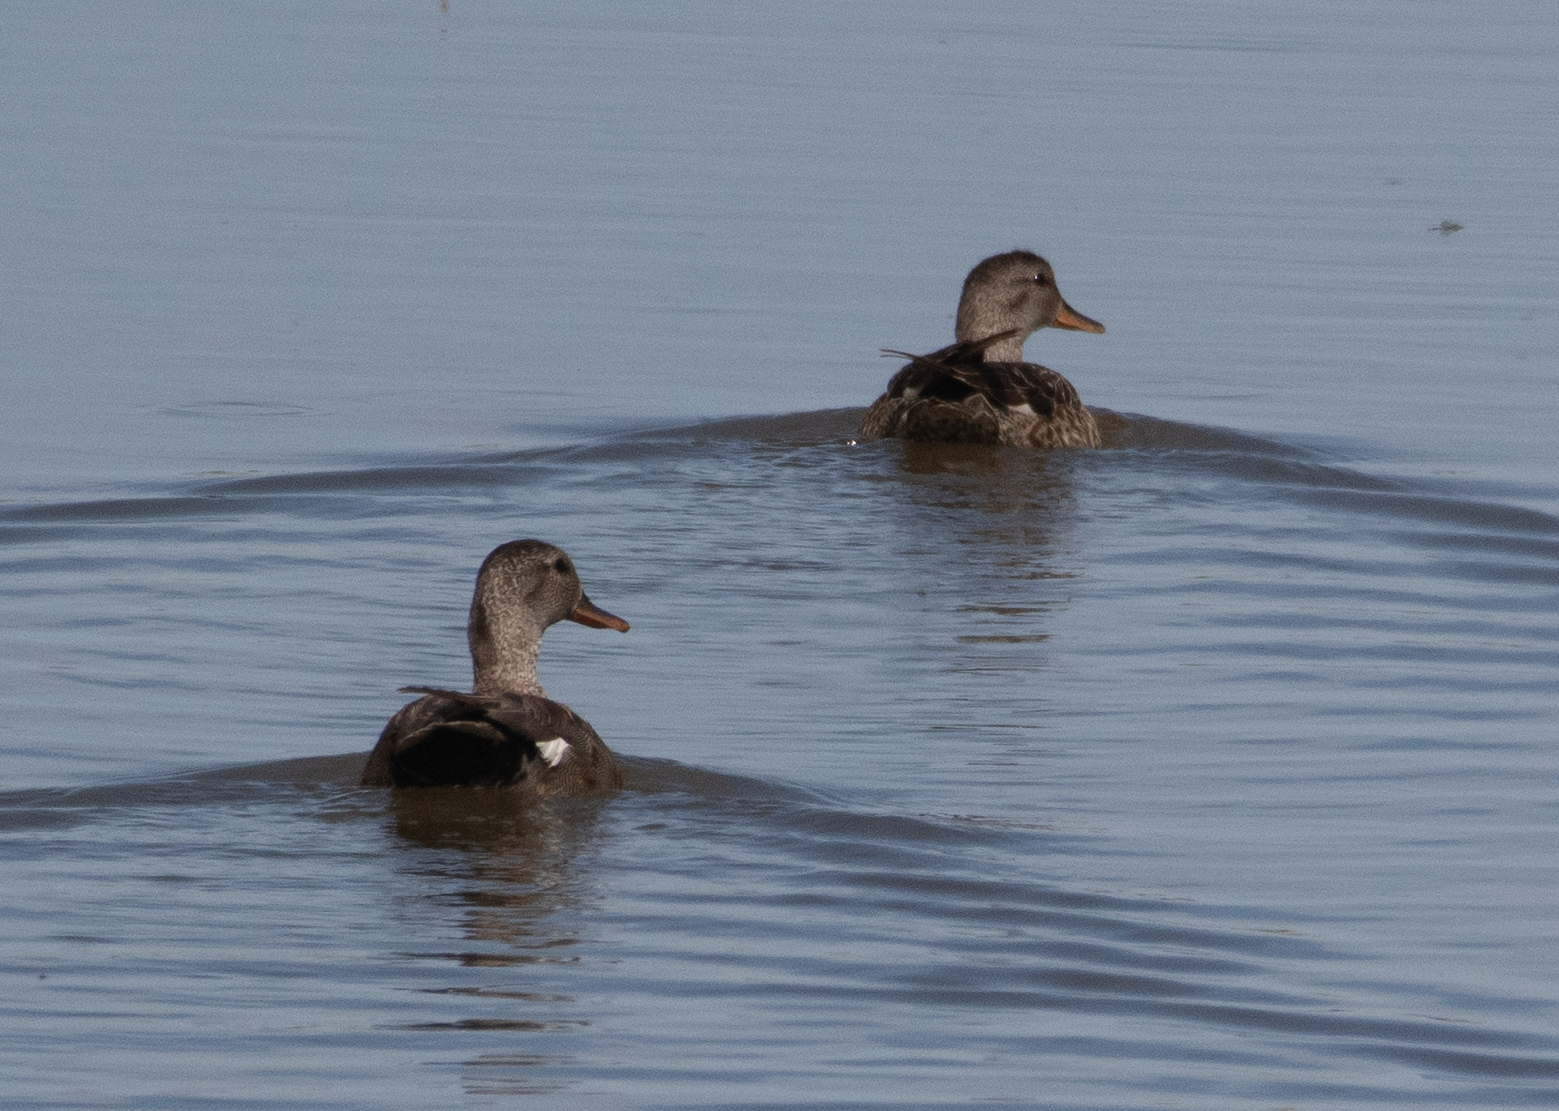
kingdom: Animalia
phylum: Chordata
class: Aves
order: Anseriformes
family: Anatidae
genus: Mareca
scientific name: Mareca strepera
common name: Gadwall
